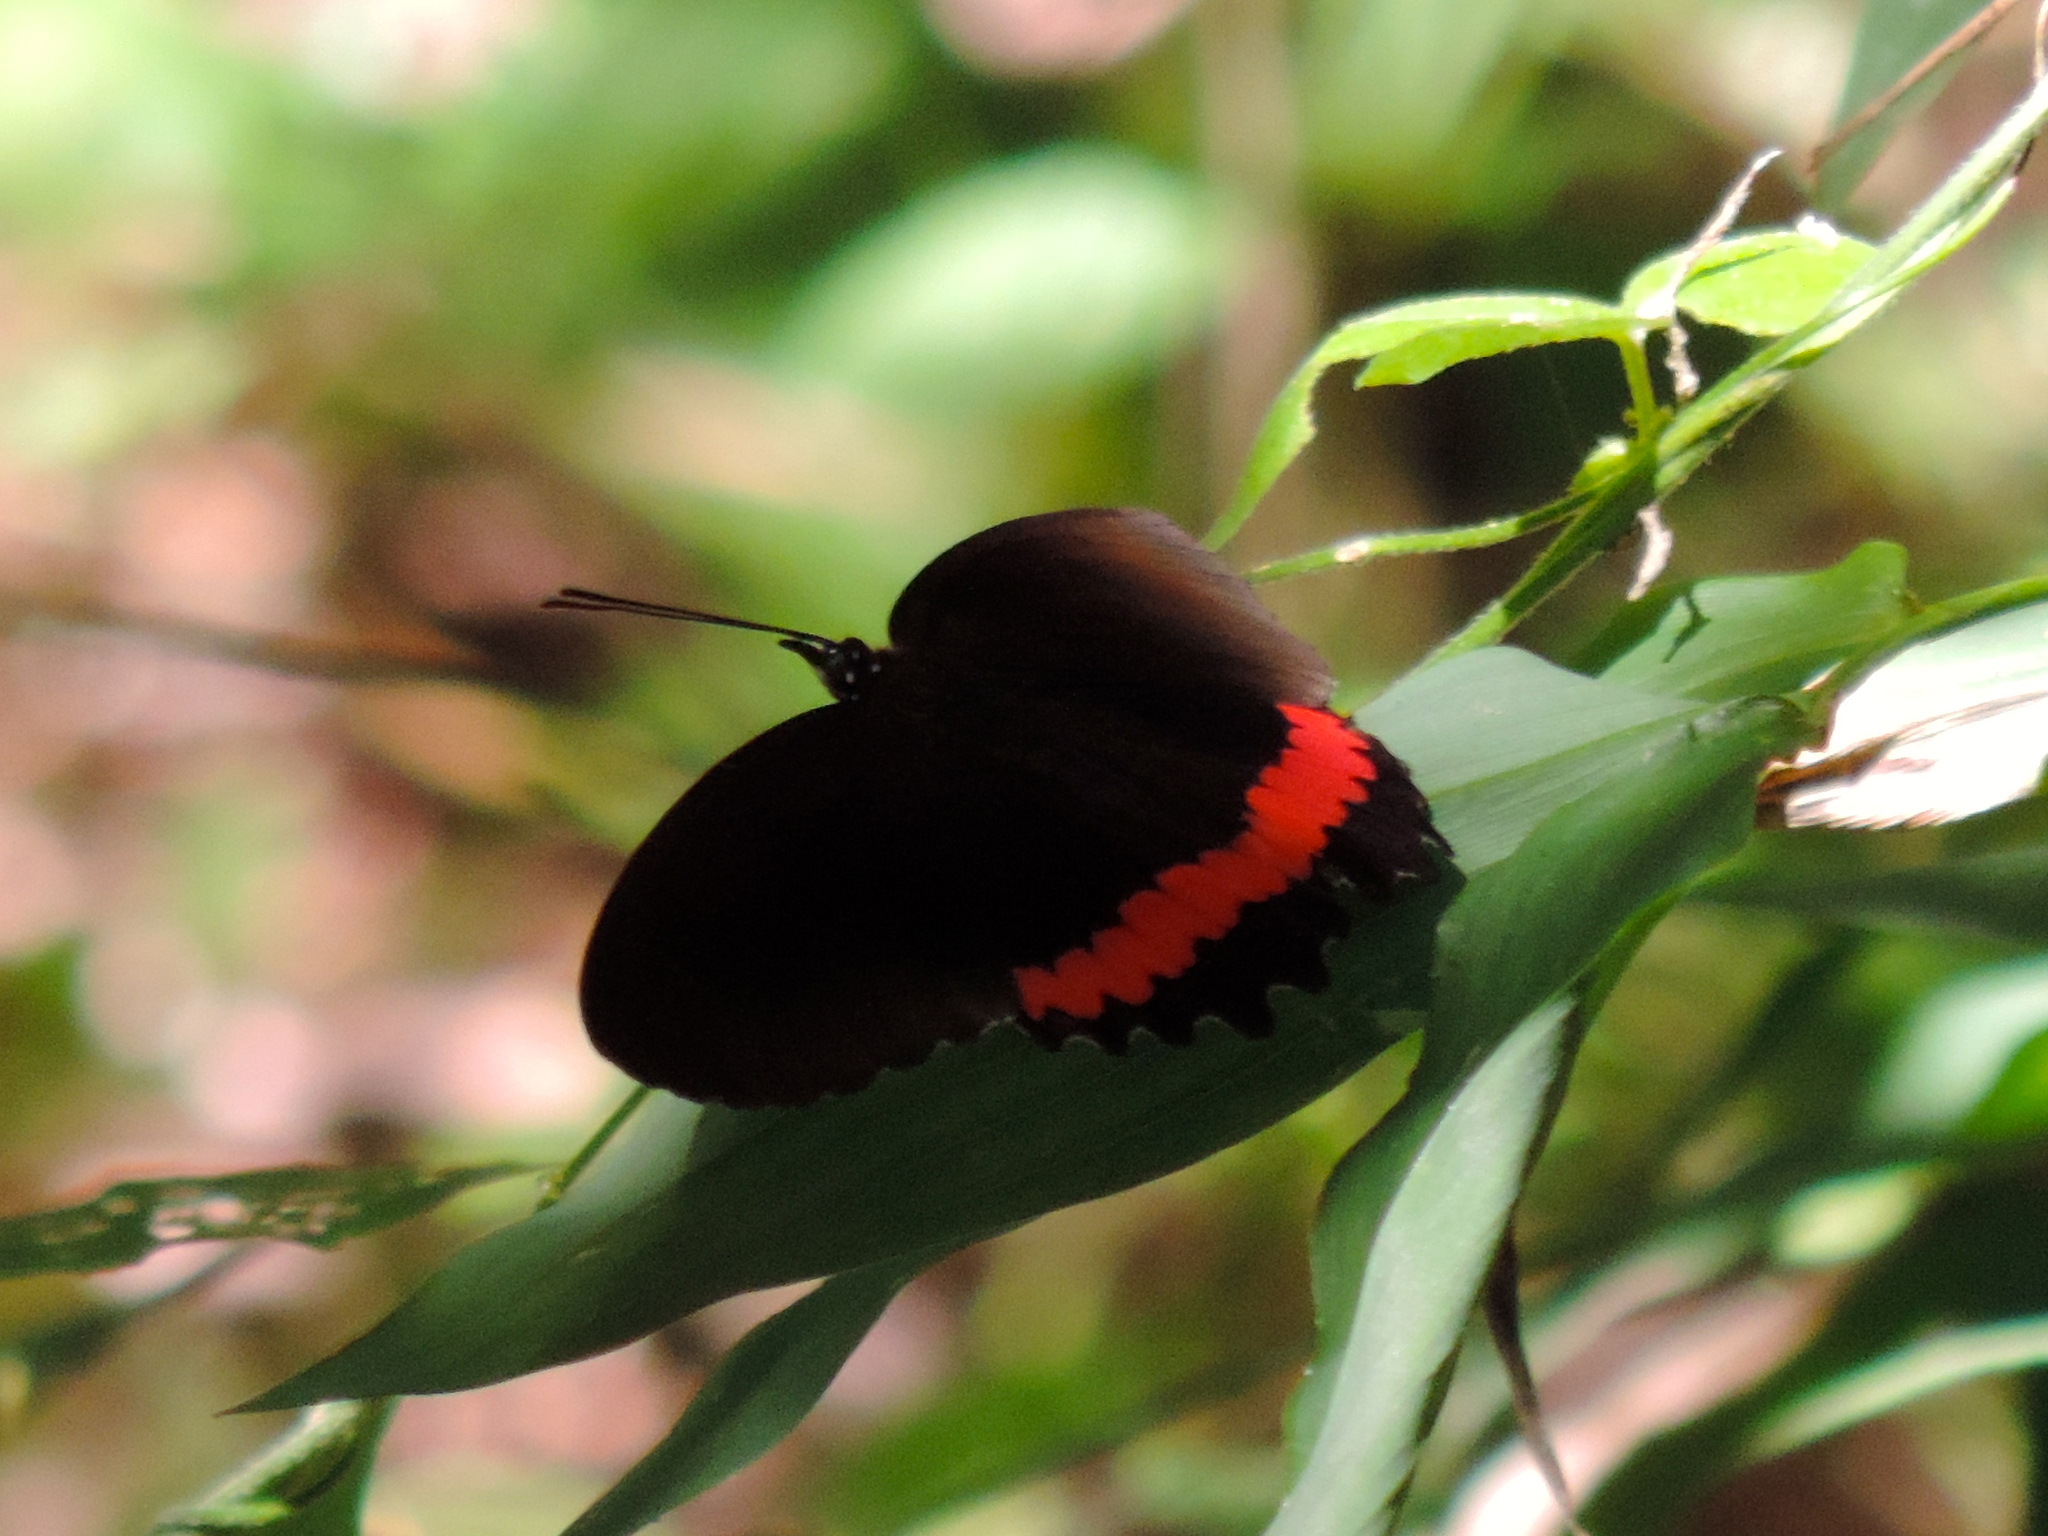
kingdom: Animalia
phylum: Arthropoda
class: Insecta
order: Lepidoptera
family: Nymphalidae
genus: Biblis
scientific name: Biblis
